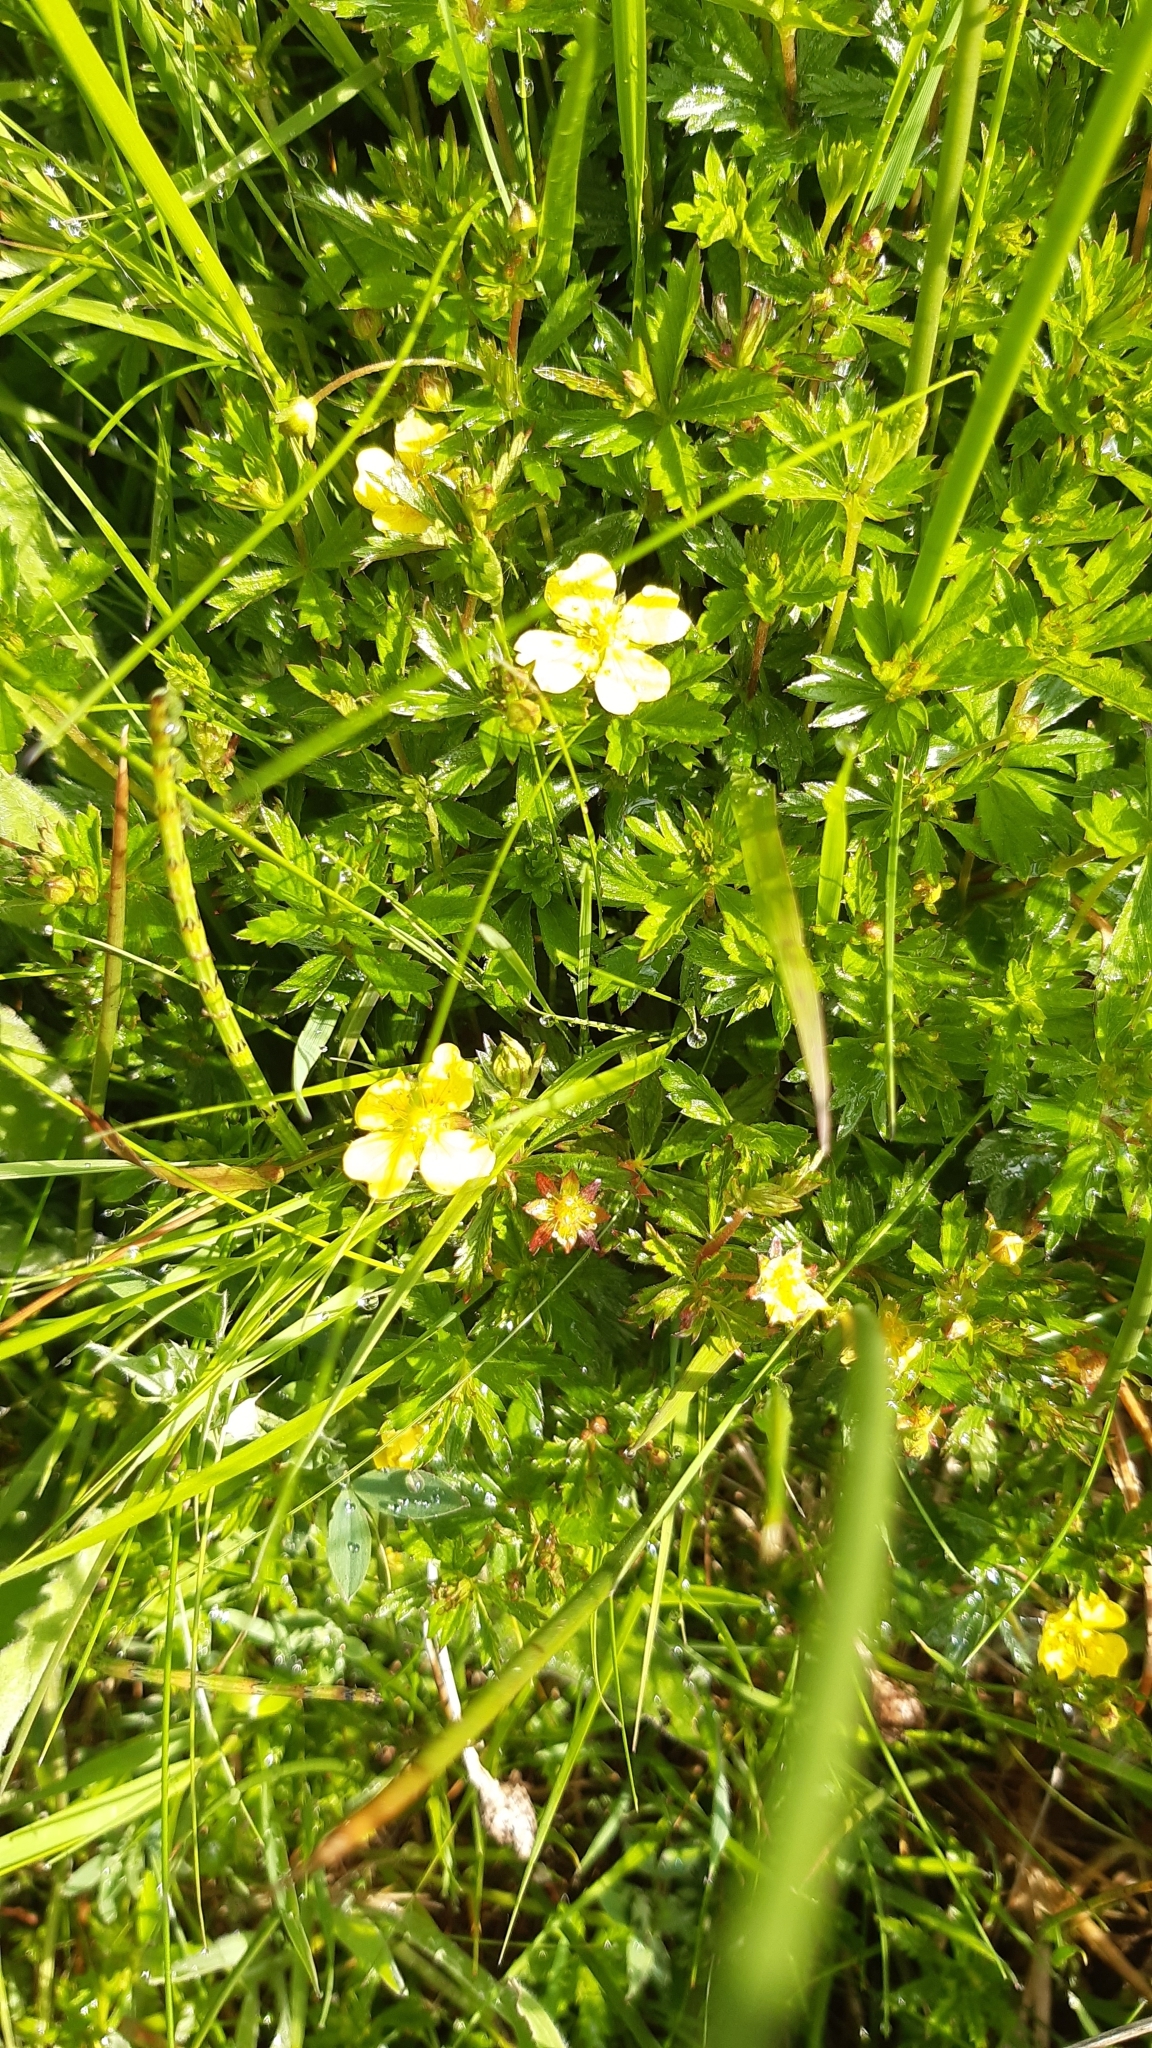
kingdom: Plantae
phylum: Tracheophyta
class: Magnoliopsida
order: Rosales
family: Rosaceae
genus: Potentilla
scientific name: Potentilla erecta
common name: Tormentil
